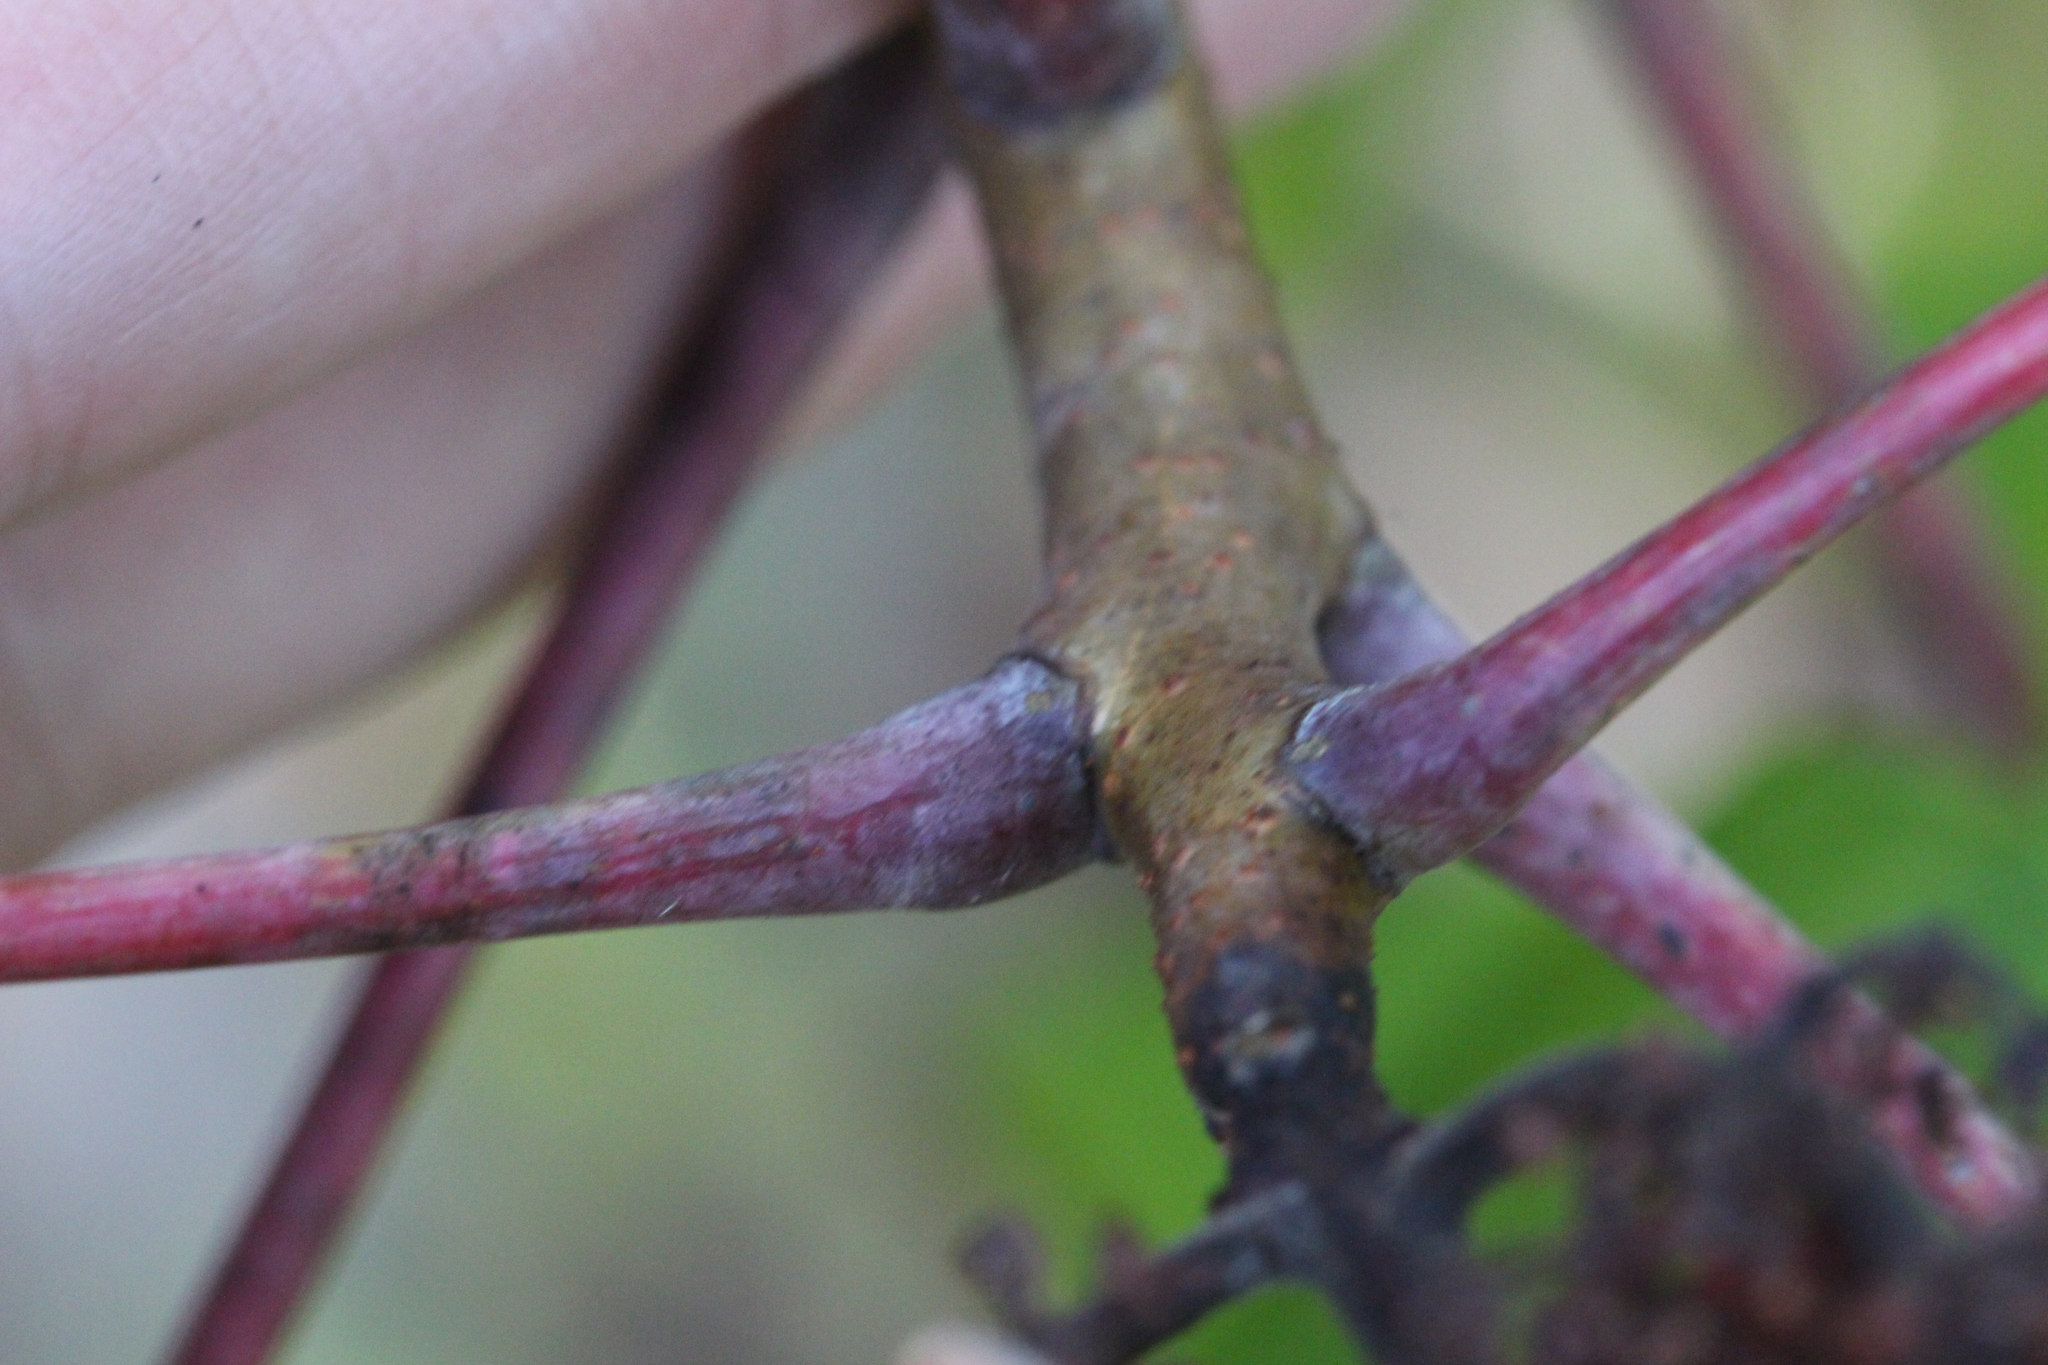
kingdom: Plantae
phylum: Tracheophyta
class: Magnoliopsida
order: Sapindales
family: Anacardiaceae
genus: Rhus
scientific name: Rhus glabra
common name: Scarlet sumac
